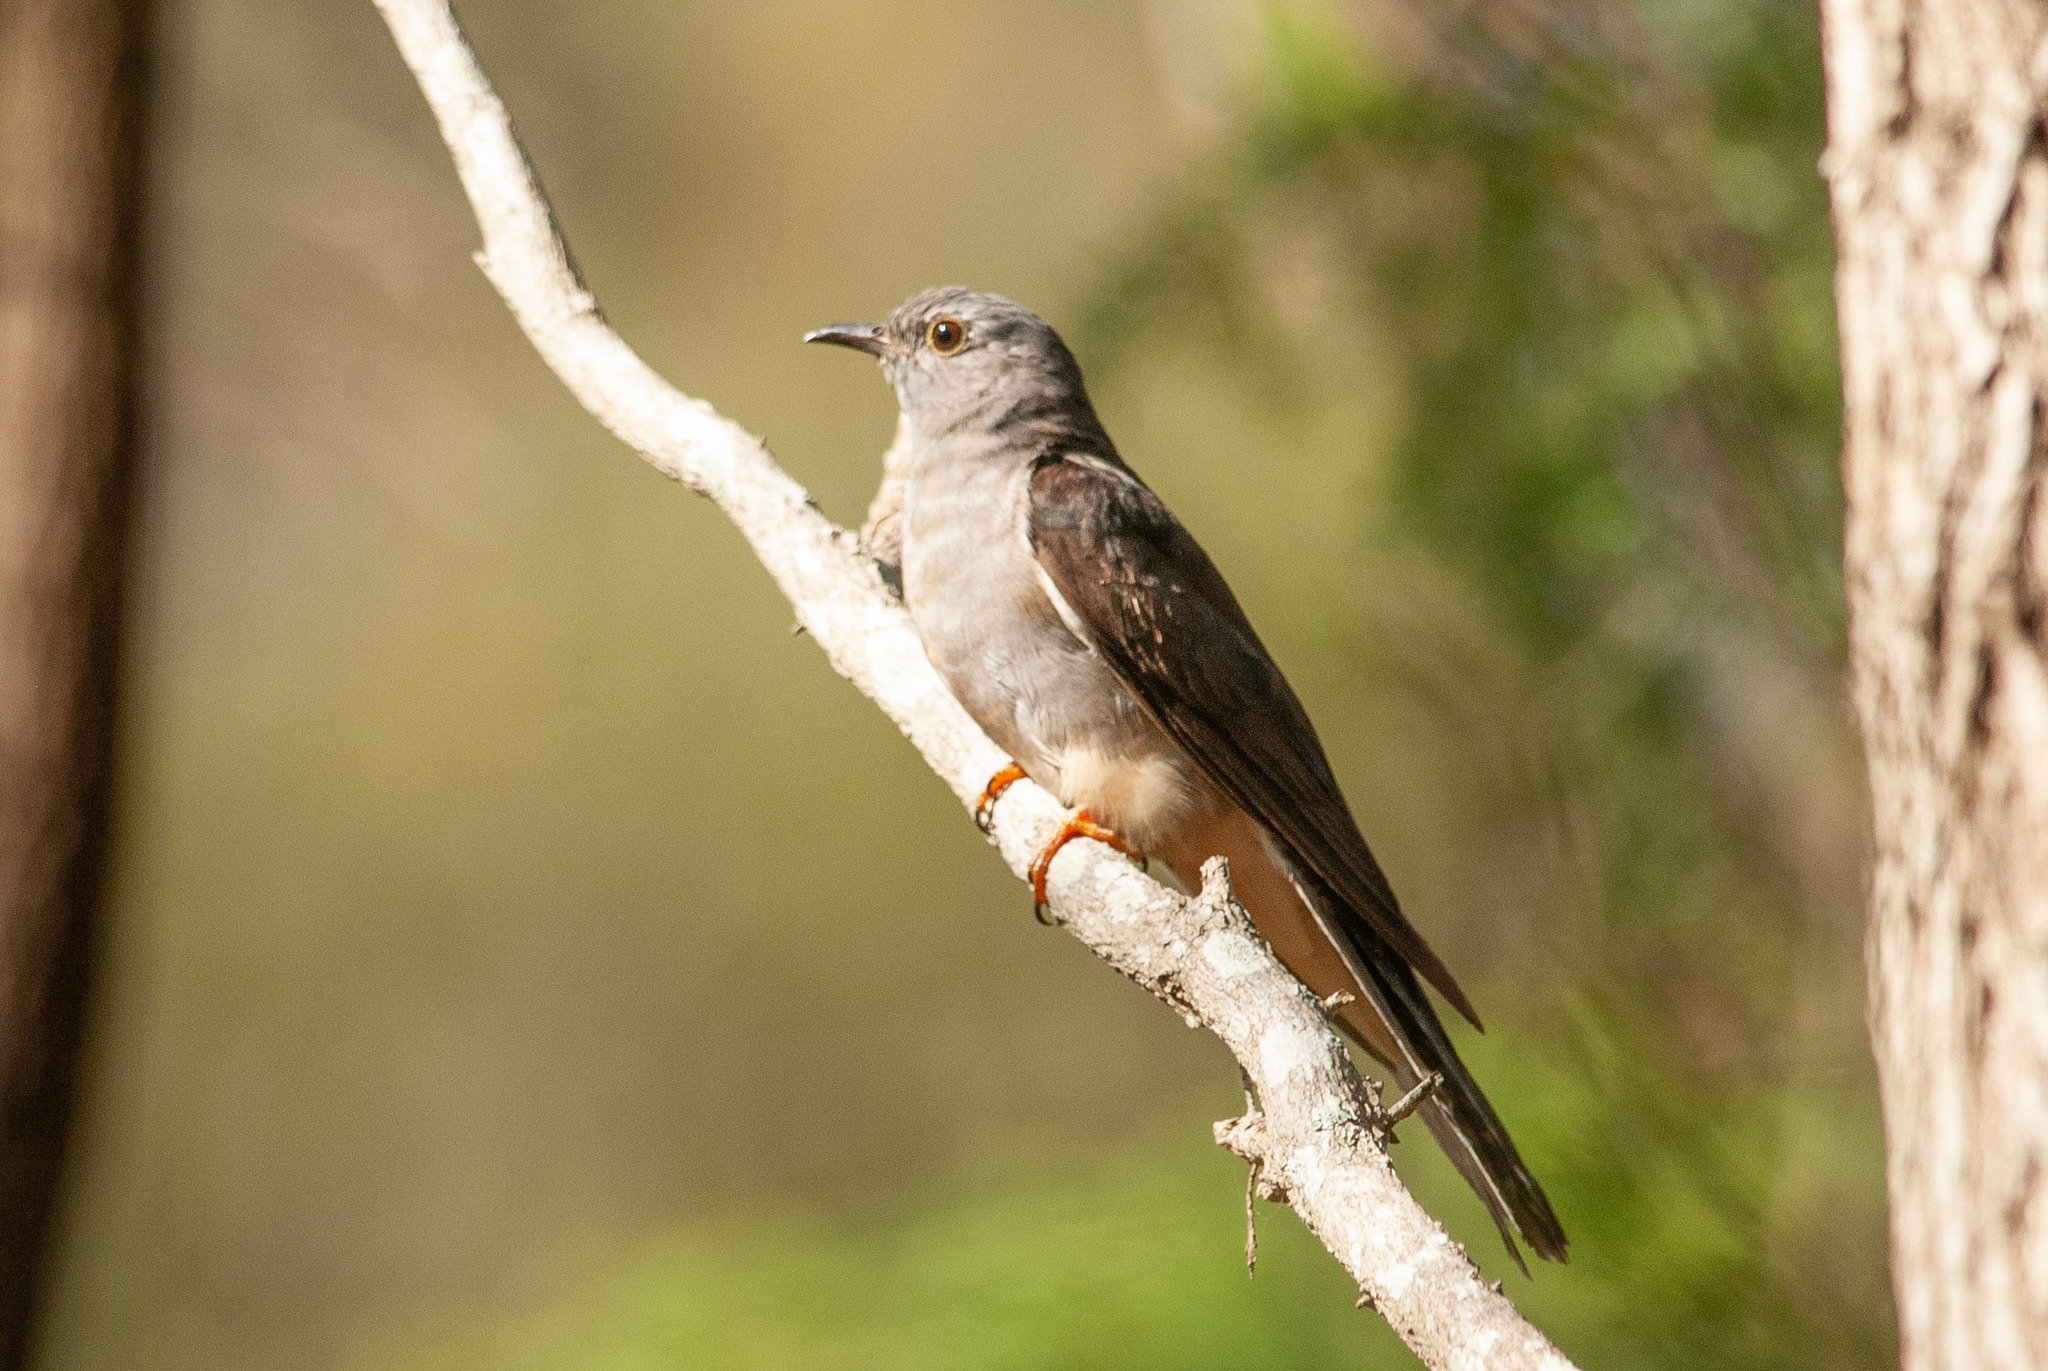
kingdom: Animalia
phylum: Chordata
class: Aves
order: Cuculiformes
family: Cuculidae
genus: Cacomantis
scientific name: Cacomantis flabelliformis
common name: Fan-tailed cuckoo
